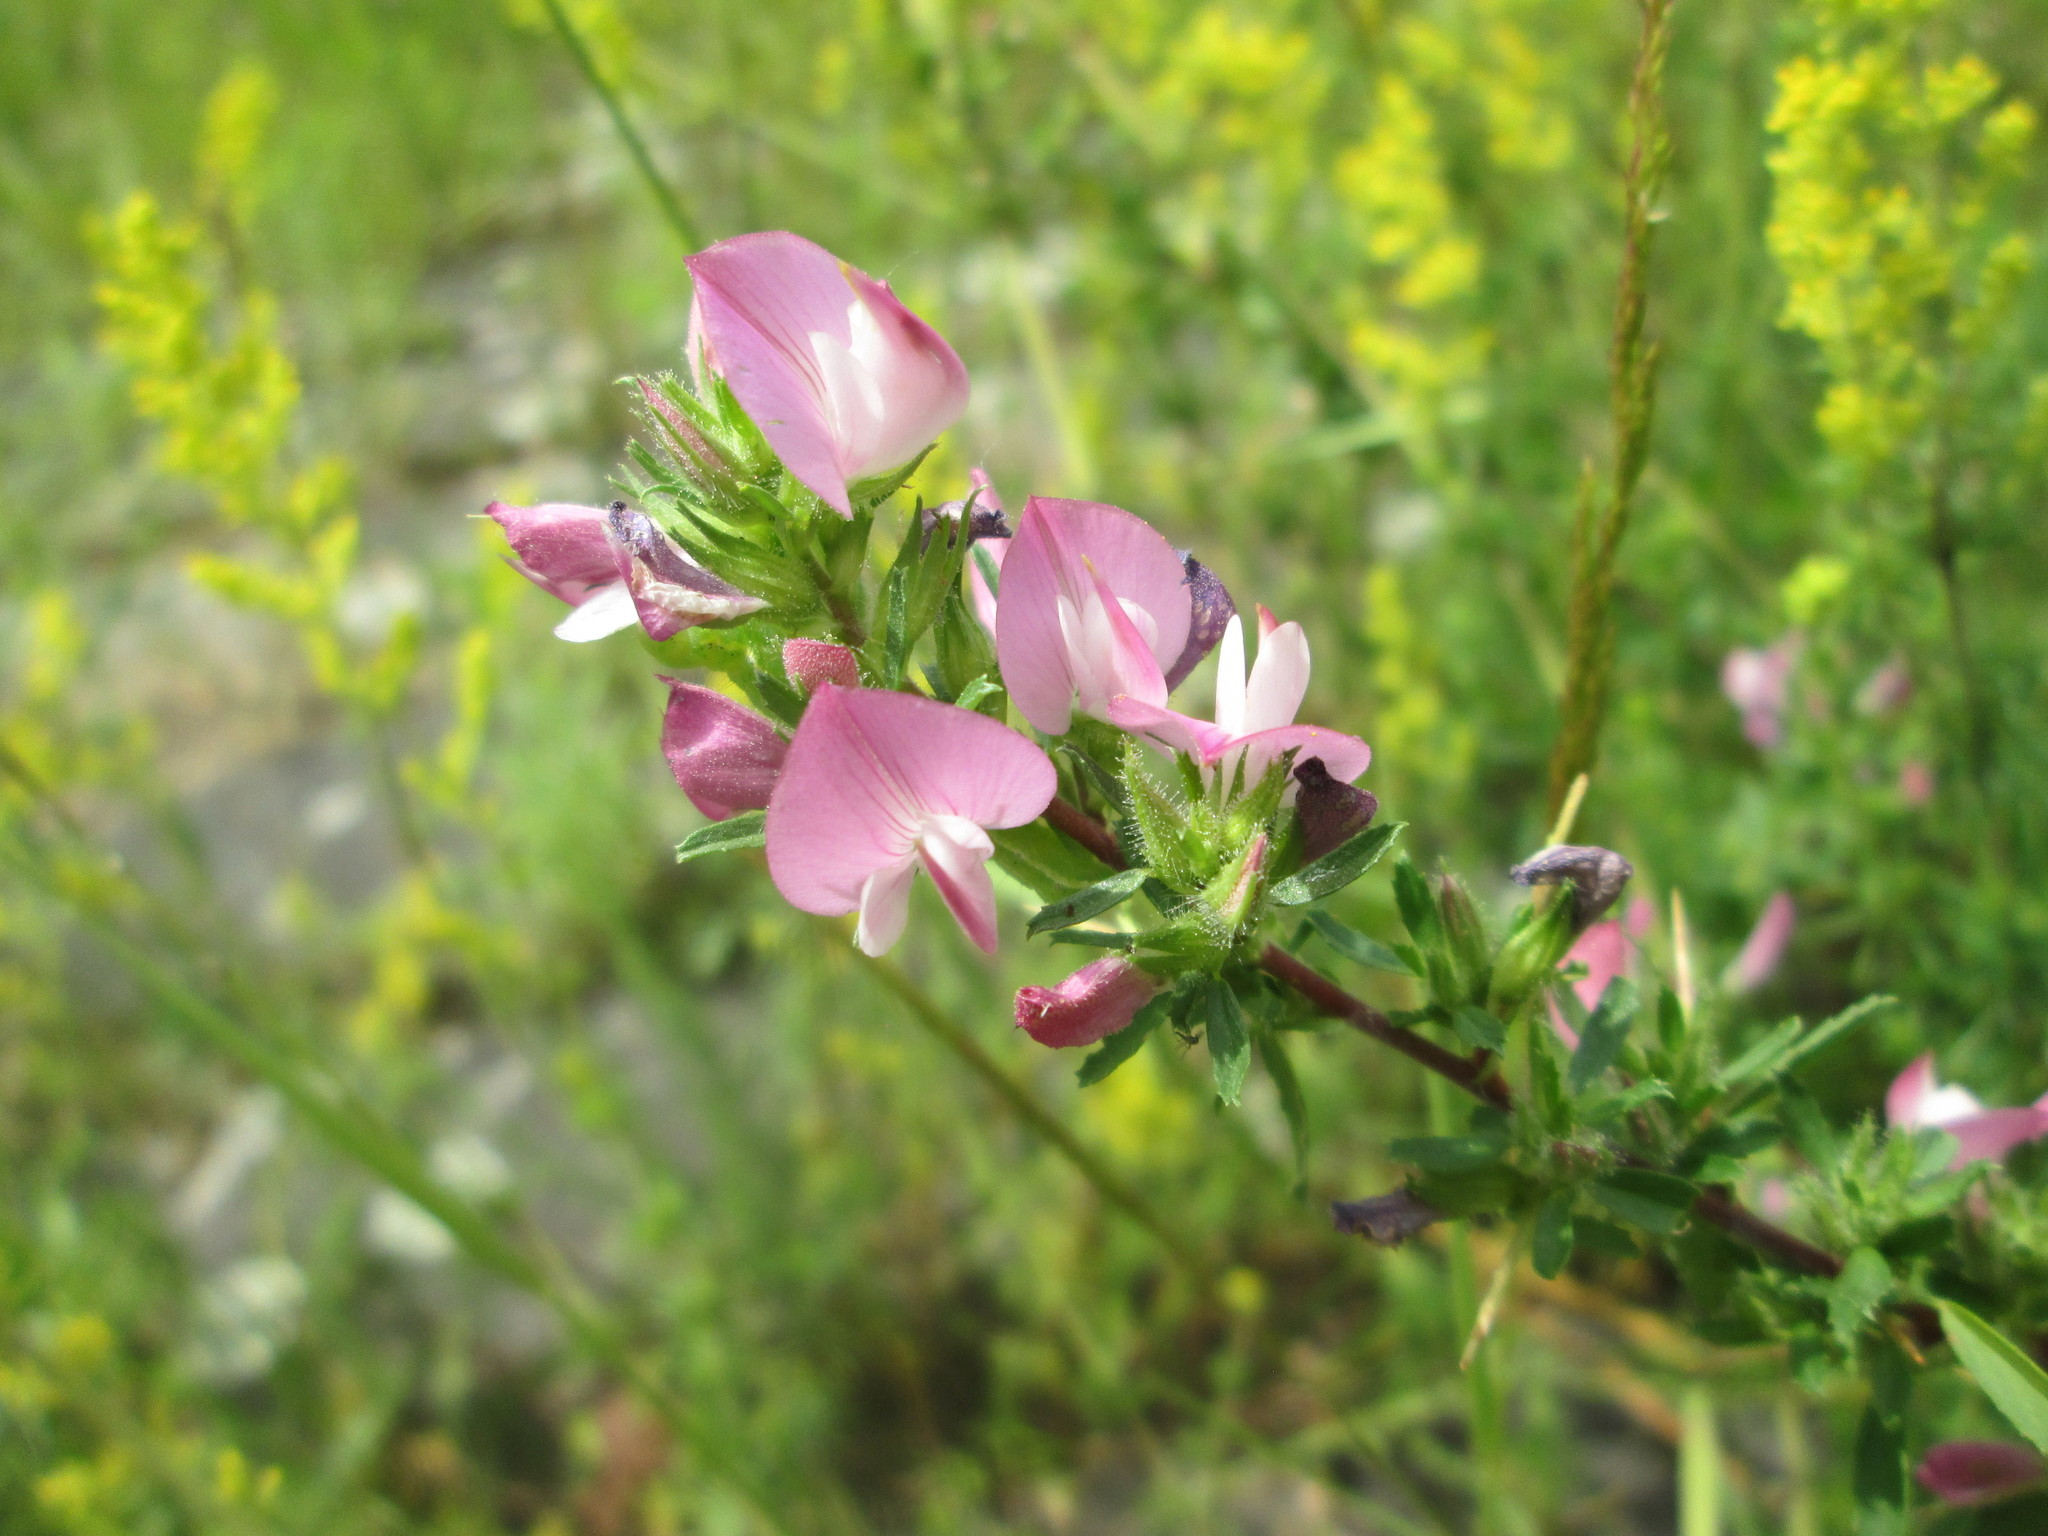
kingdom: Plantae
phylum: Tracheophyta
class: Magnoliopsida
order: Fabales
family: Fabaceae
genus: Ononis
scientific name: Ononis spinosa
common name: Spiny restharrow
